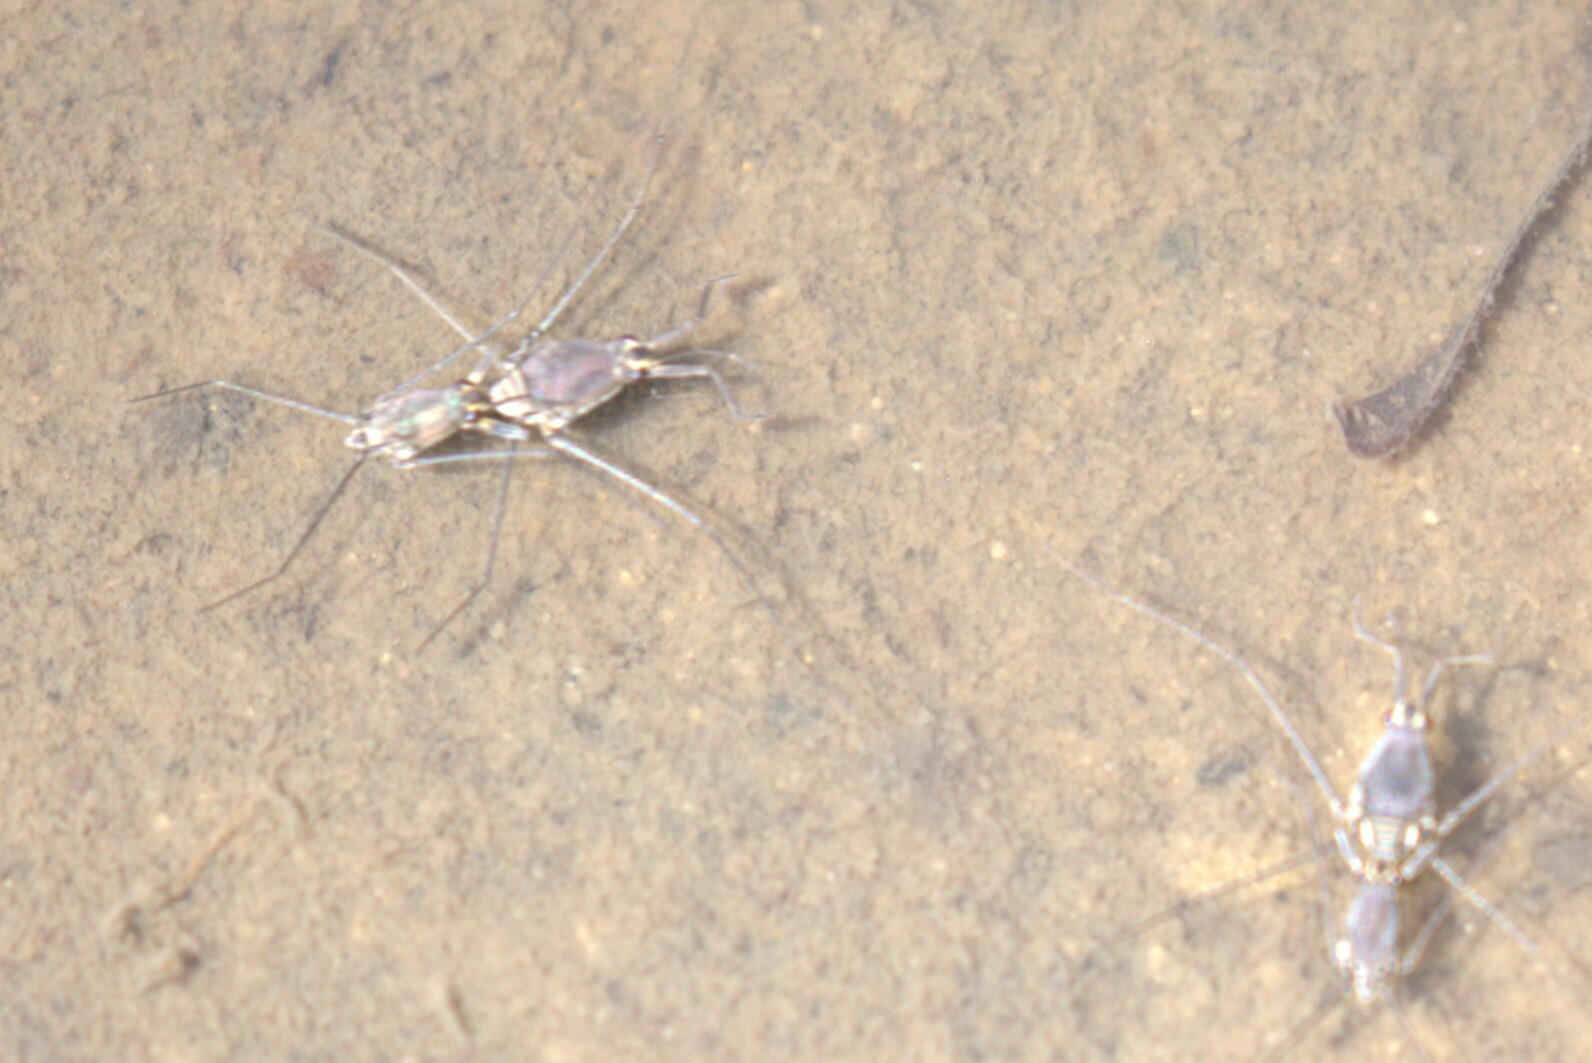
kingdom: Animalia
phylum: Arthropoda
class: Insecta
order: Hemiptera
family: Gerridae
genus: Halobates
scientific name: Halobates
